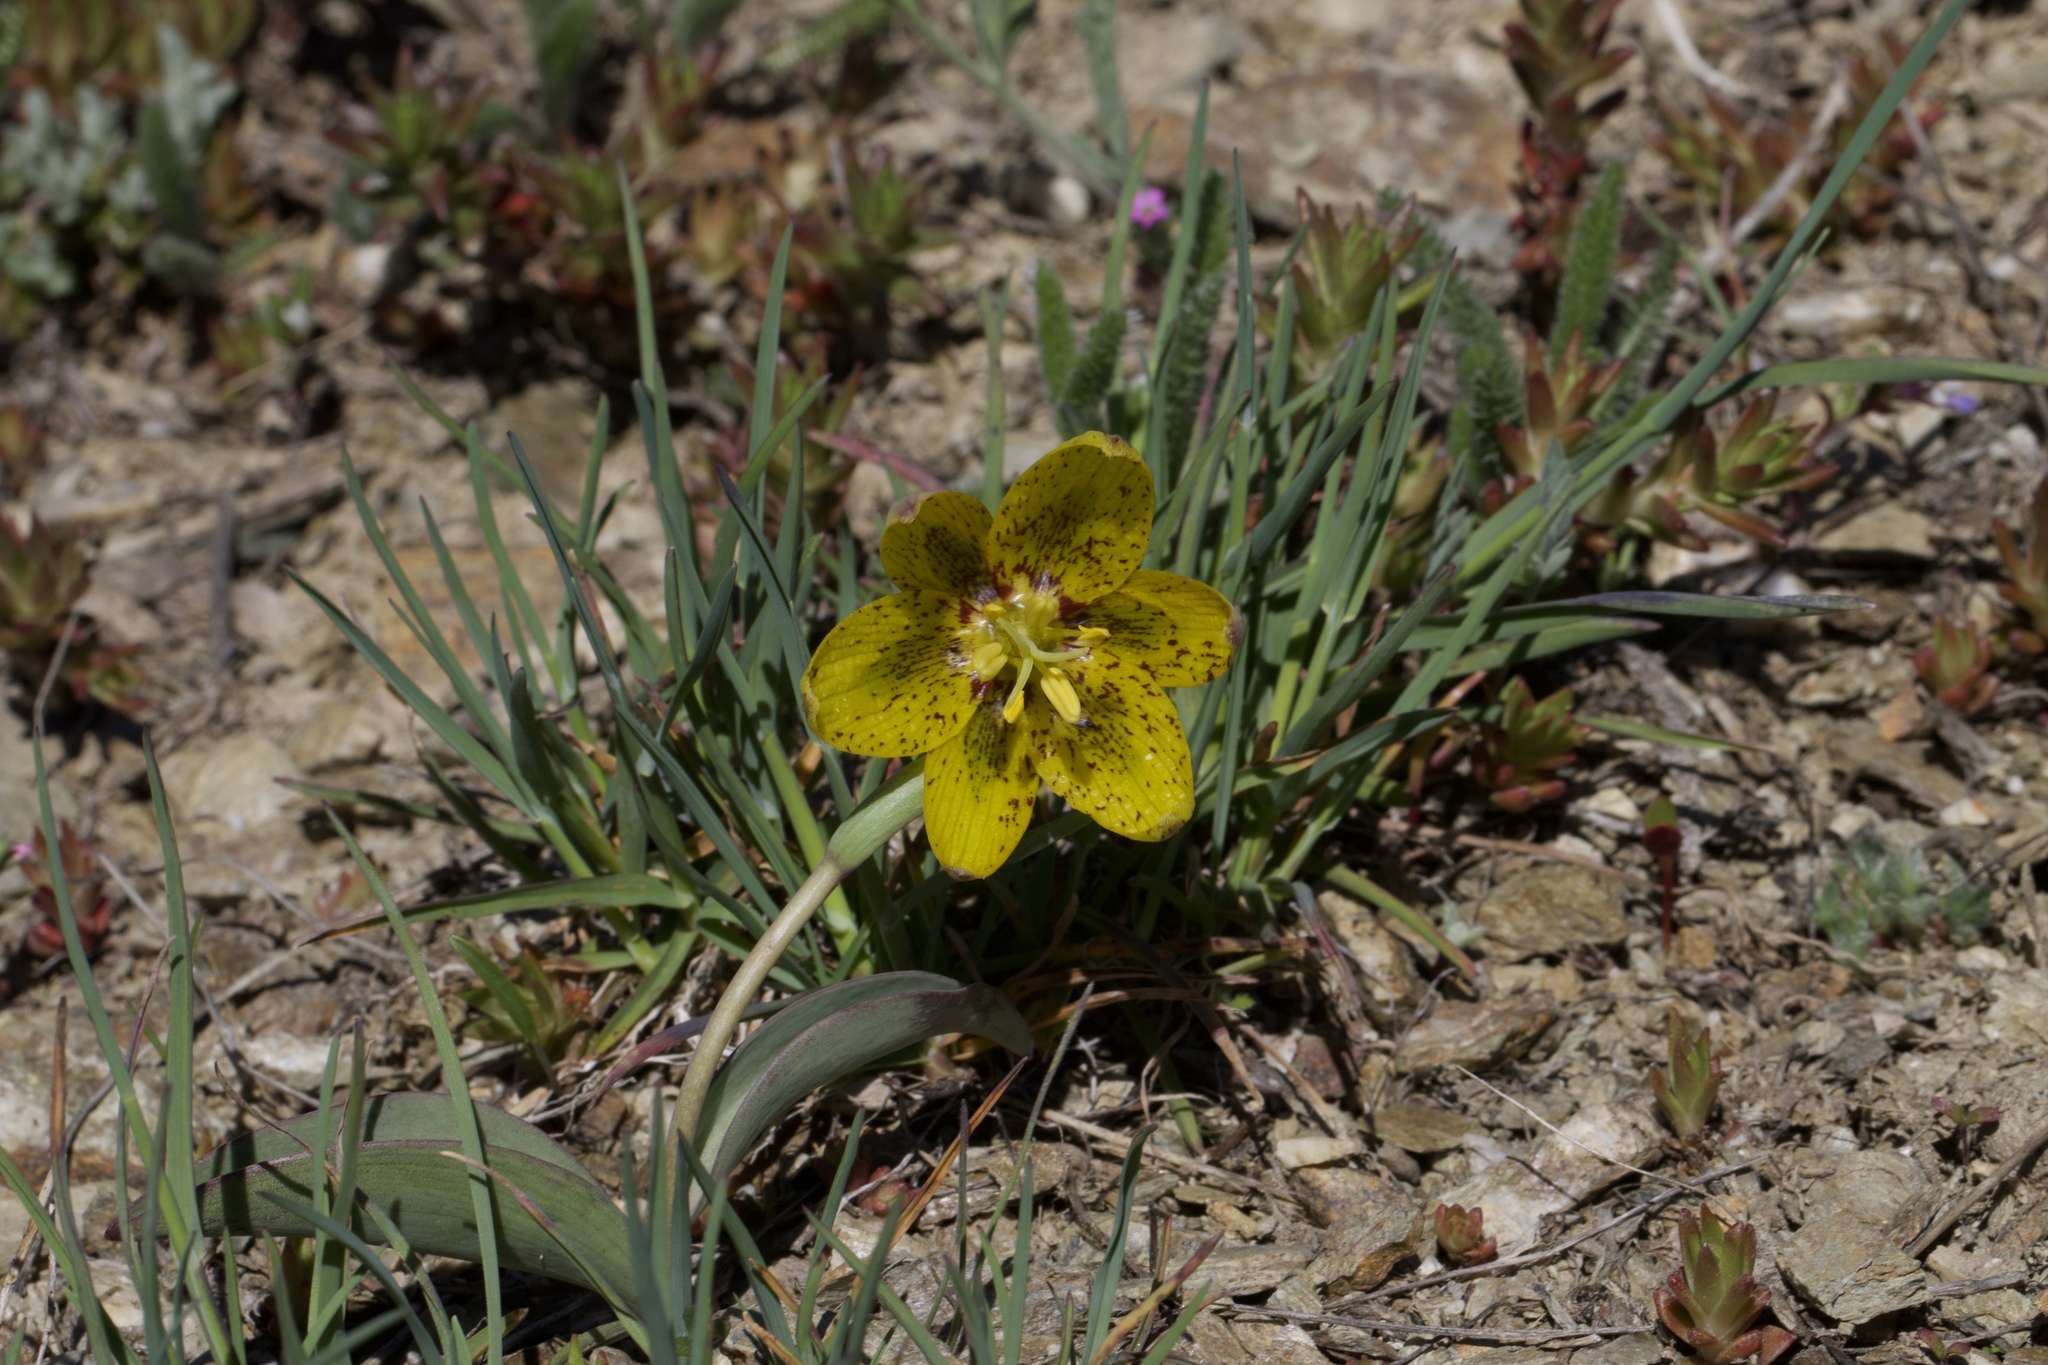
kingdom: Plantae
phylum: Tracheophyta
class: Liliopsida
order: Liliales
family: Liliaceae
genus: Fritillaria
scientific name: Fritillaria glauca
